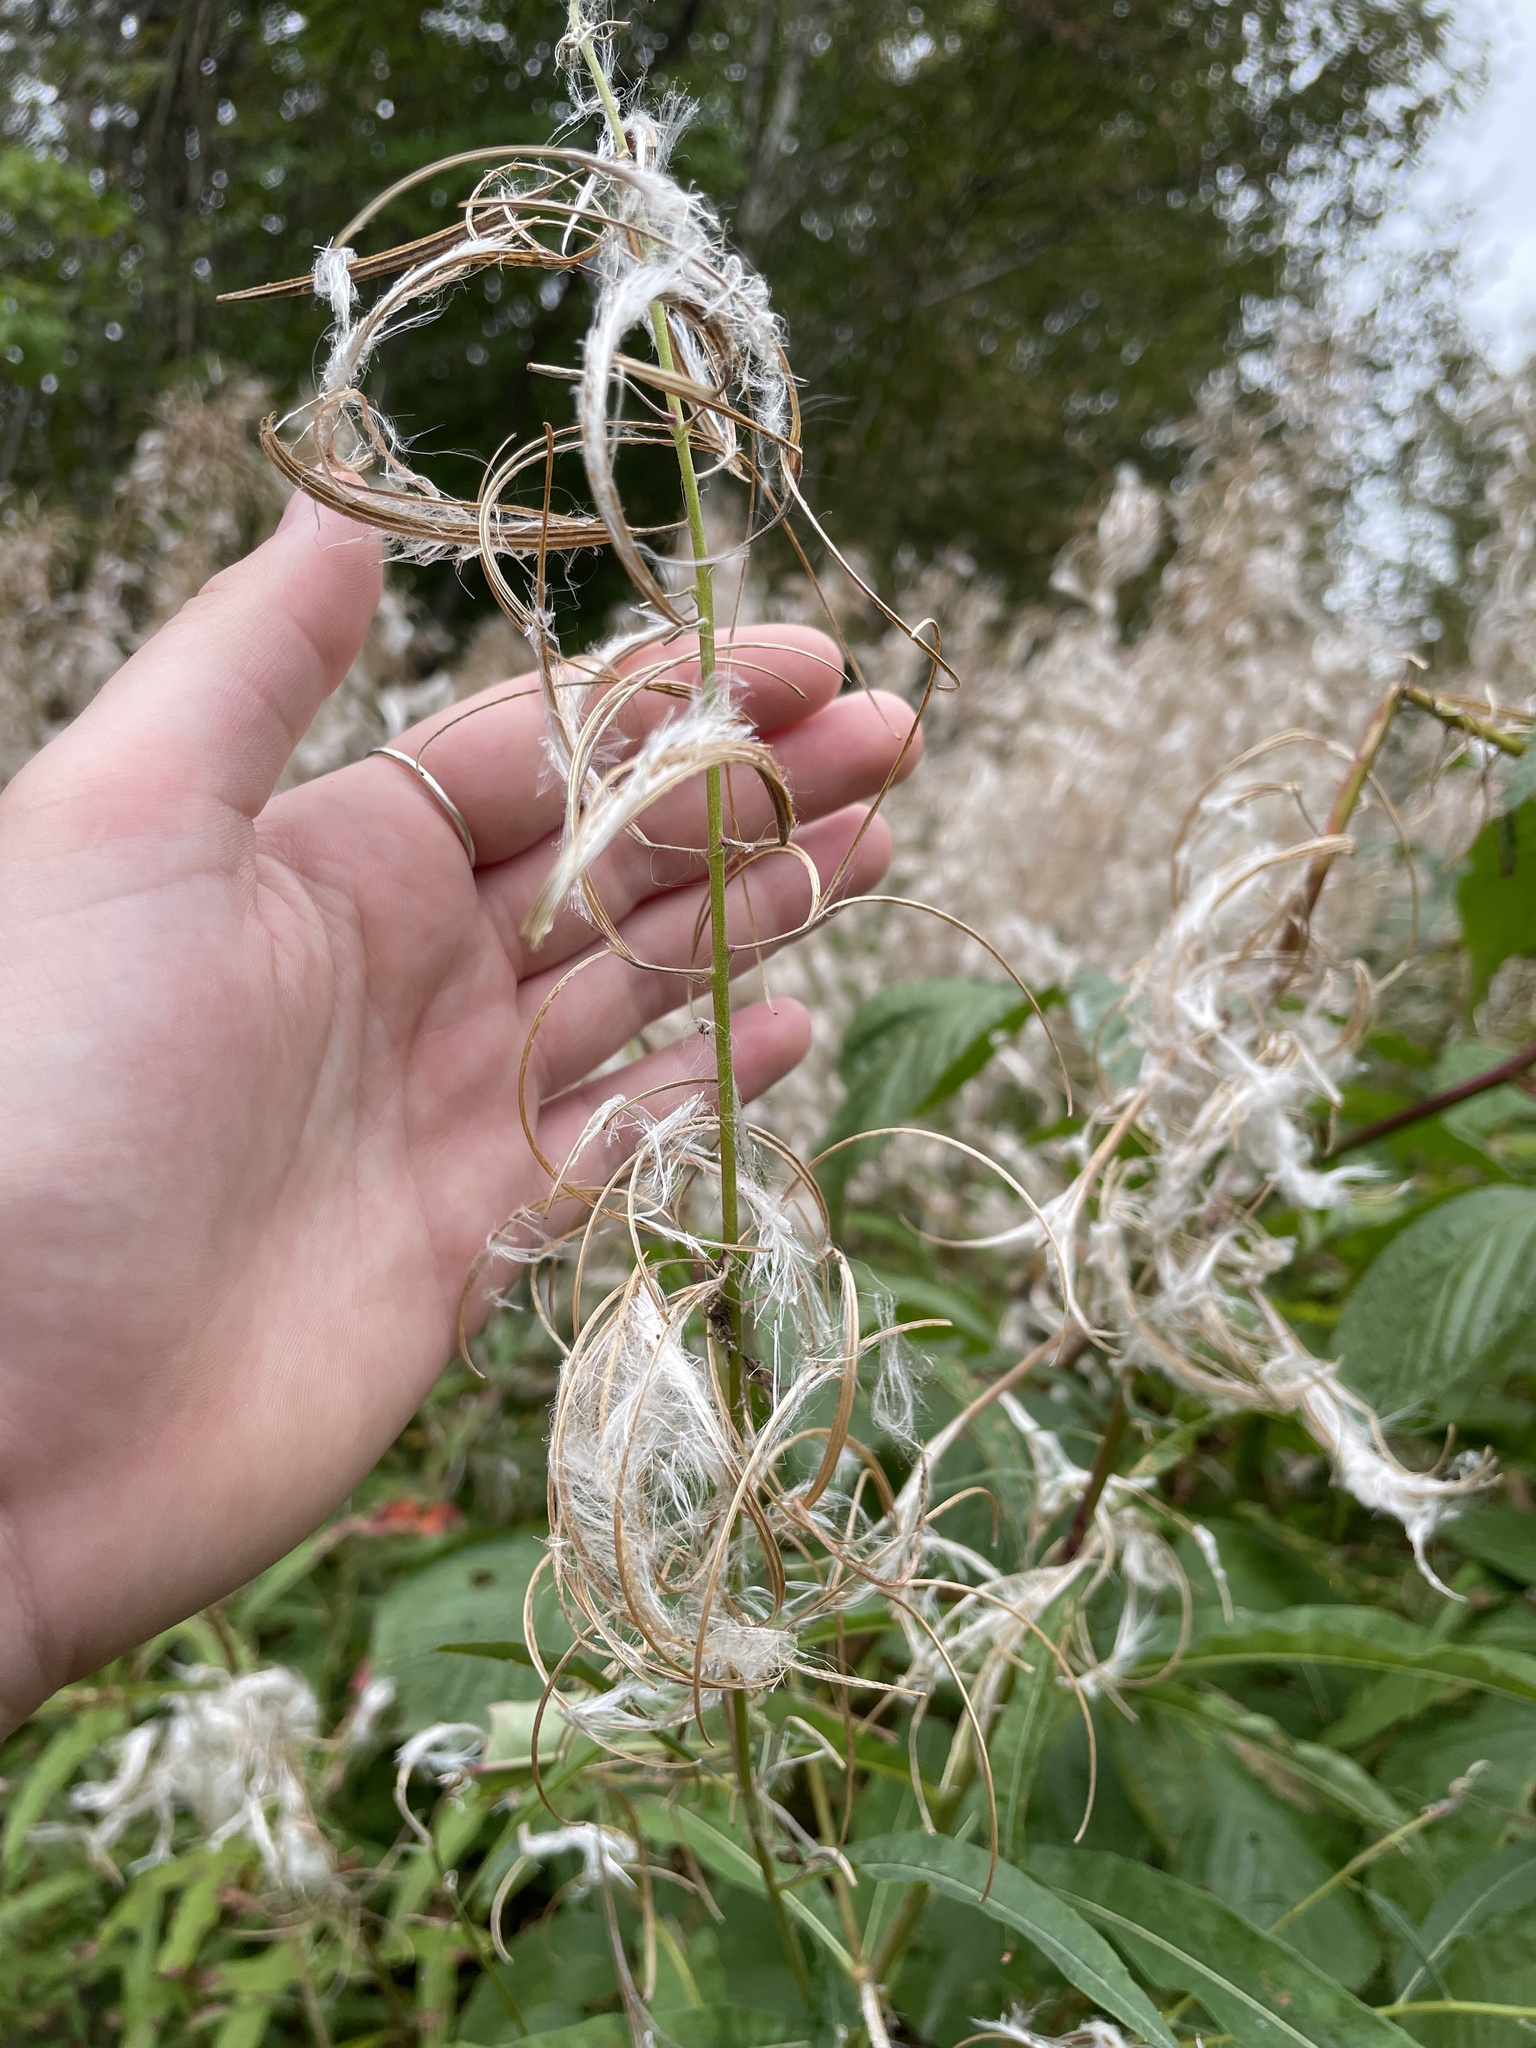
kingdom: Plantae
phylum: Tracheophyta
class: Magnoliopsida
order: Myrtales
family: Onagraceae
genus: Chamaenerion
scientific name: Chamaenerion angustifolium
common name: Fireweed
